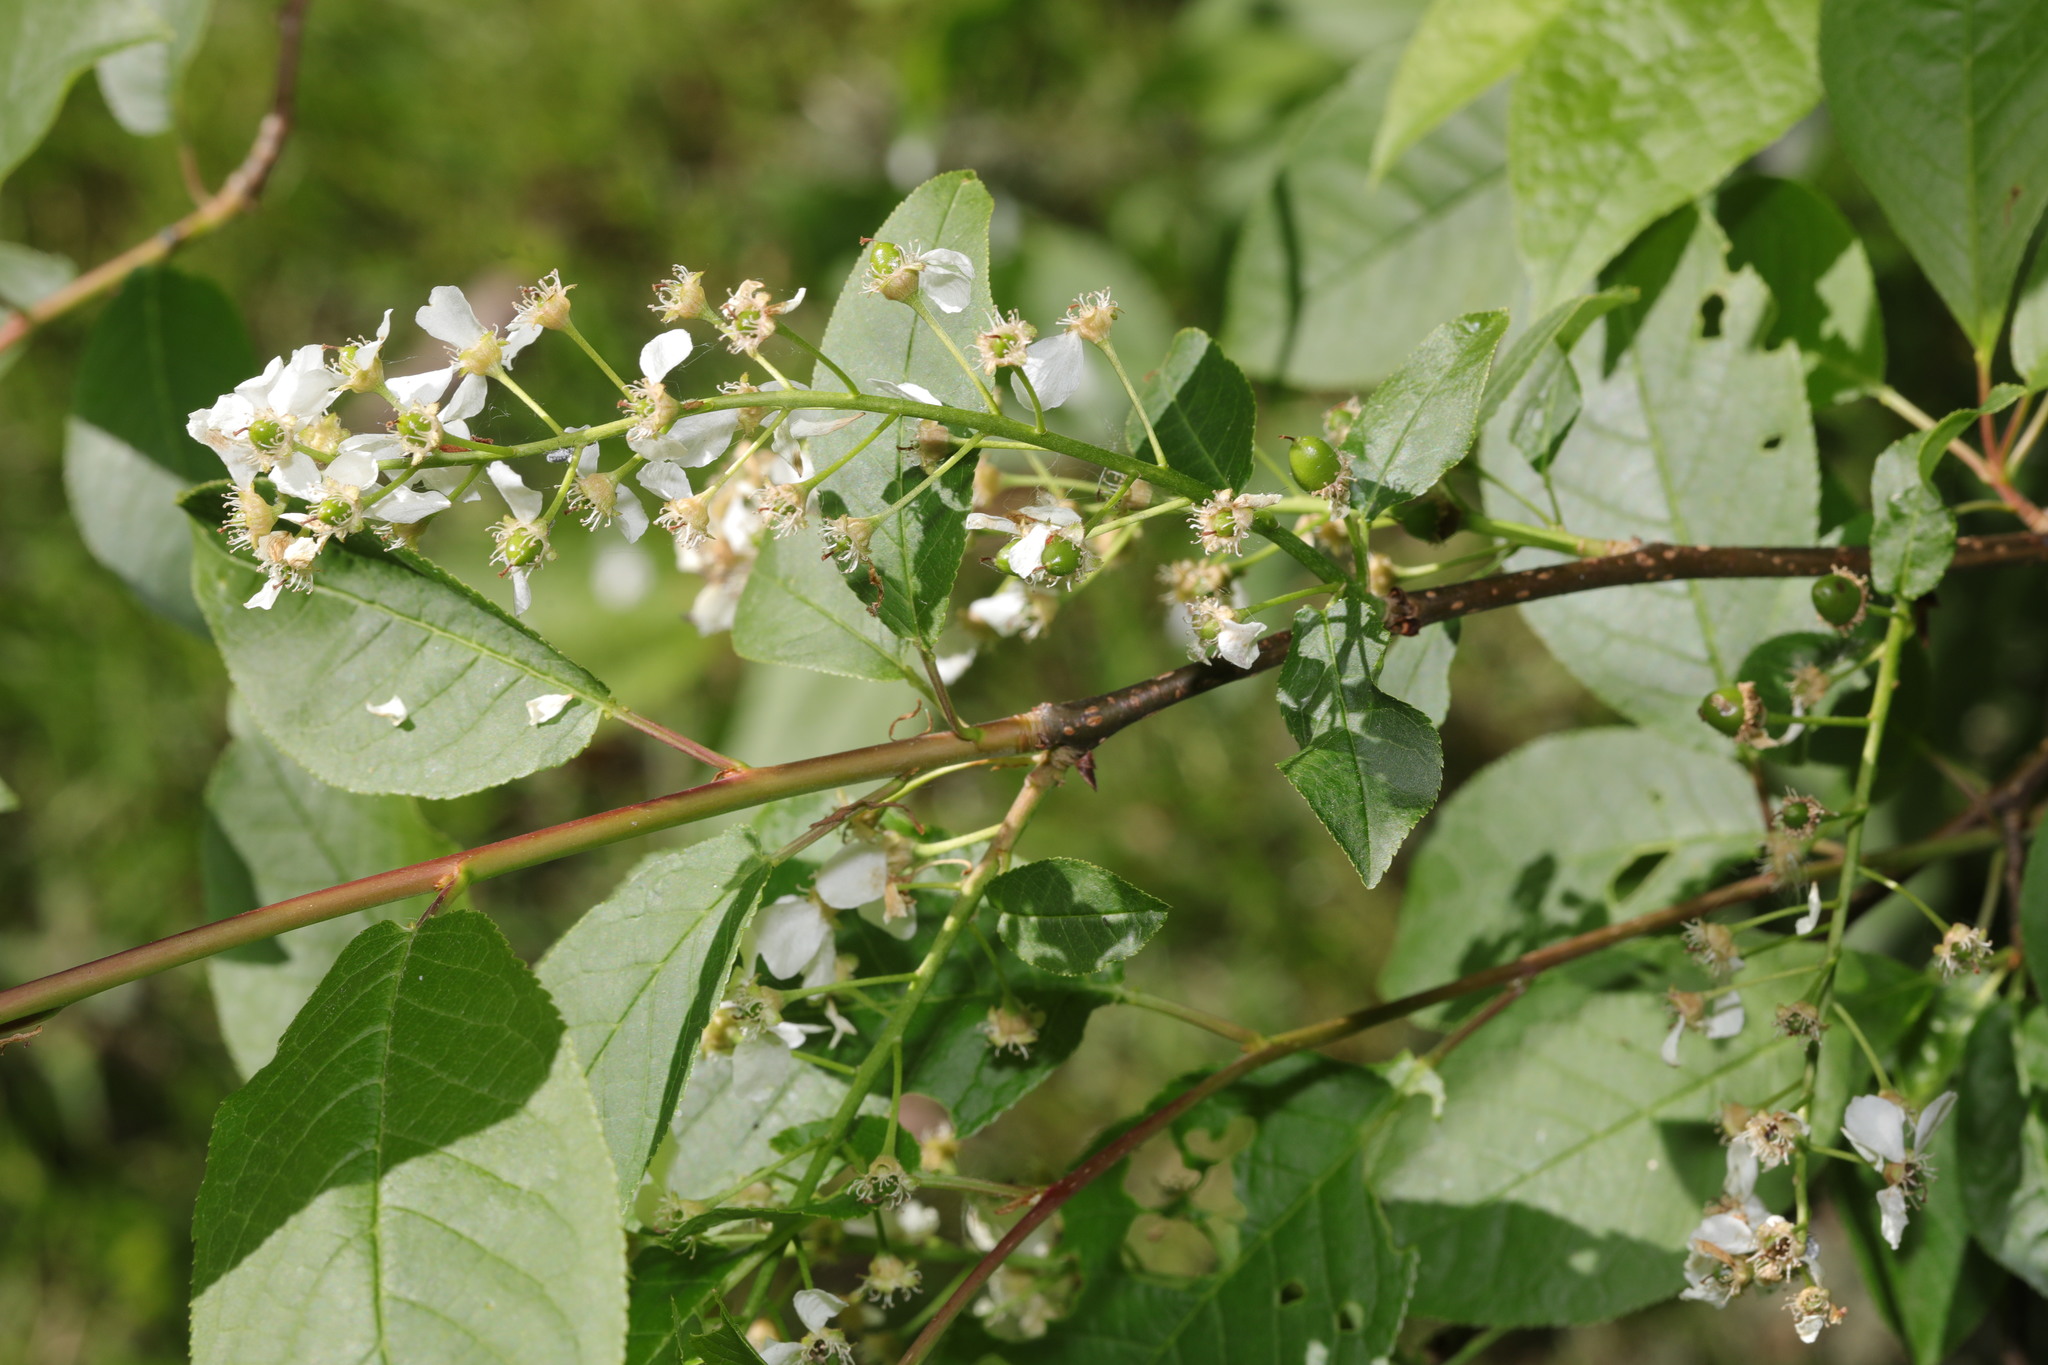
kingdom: Plantae
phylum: Tracheophyta
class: Magnoliopsida
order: Rosales
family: Rosaceae
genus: Prunus
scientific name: Prunus padus
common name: Bird cherry
